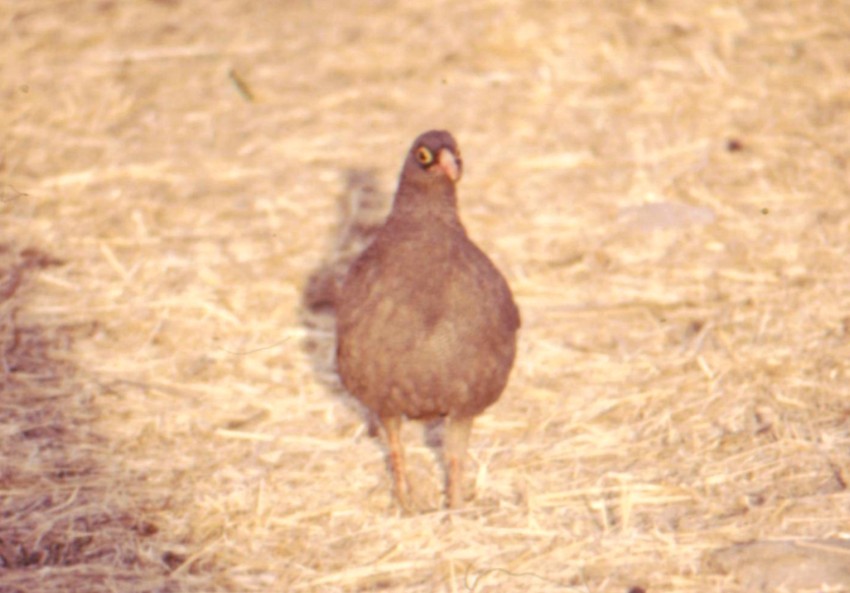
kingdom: Animalia
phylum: Chordata
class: Aves
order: Galliformes
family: Phasianidae
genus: Pternistis
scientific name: Pternistis adspersus
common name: Red-billed spurfowl
